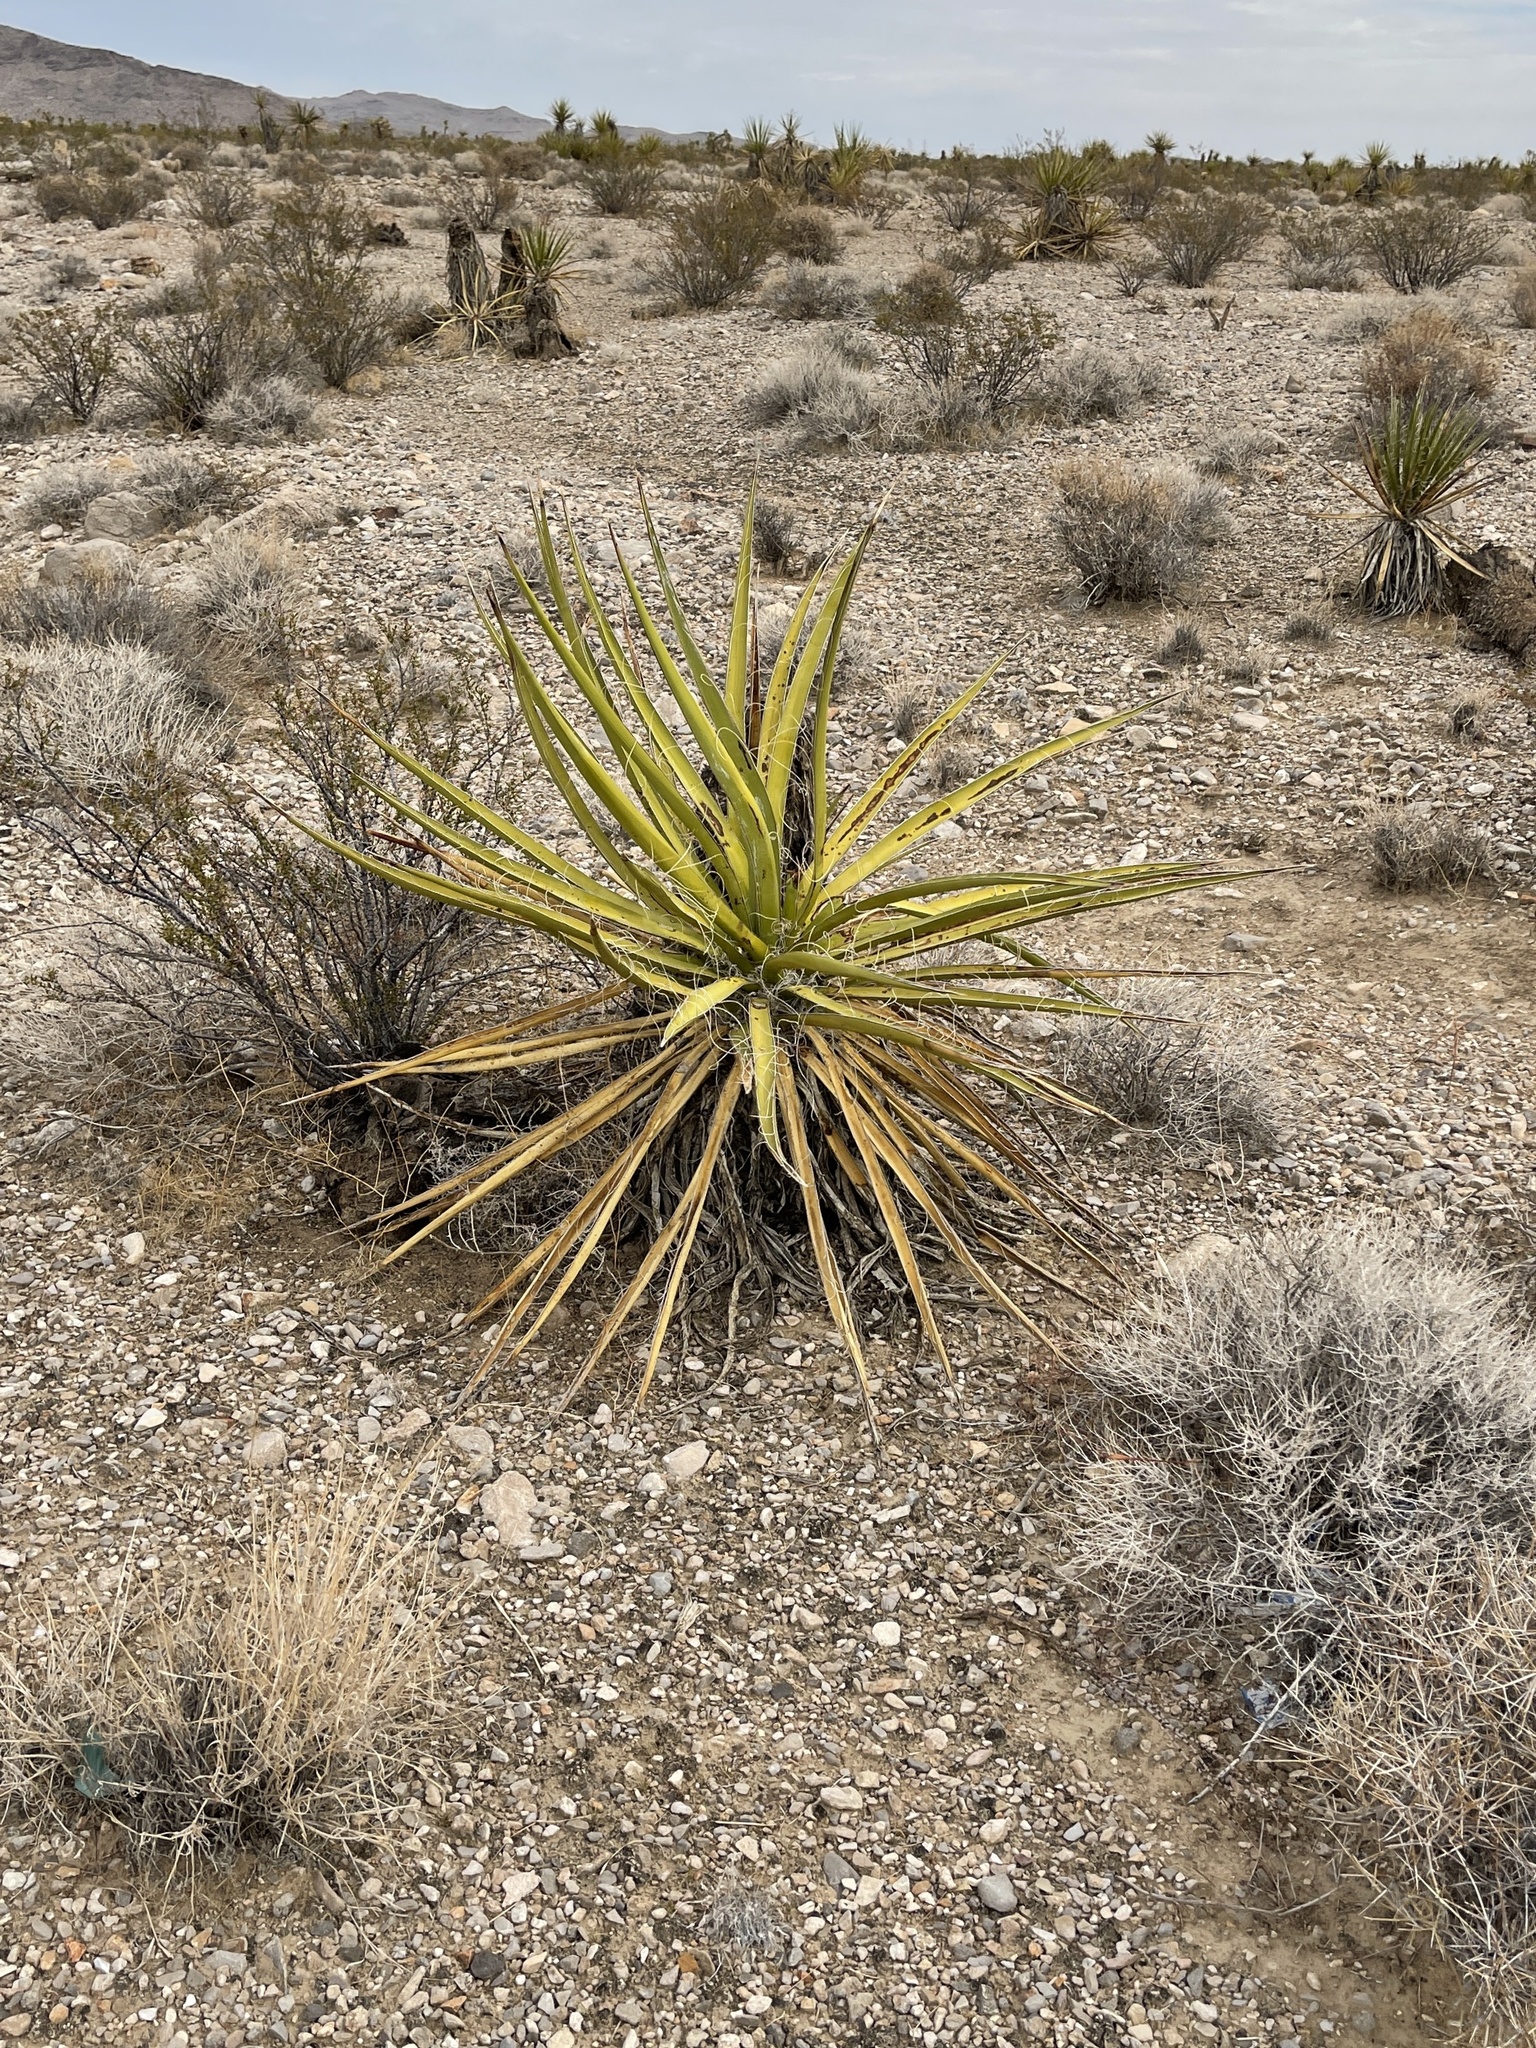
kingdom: Plantae
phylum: Tracheophyta
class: Liliopsida
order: Asparagales
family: Asparagaceae
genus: Yucca
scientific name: Yucca schidigera
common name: Mojave yucca
